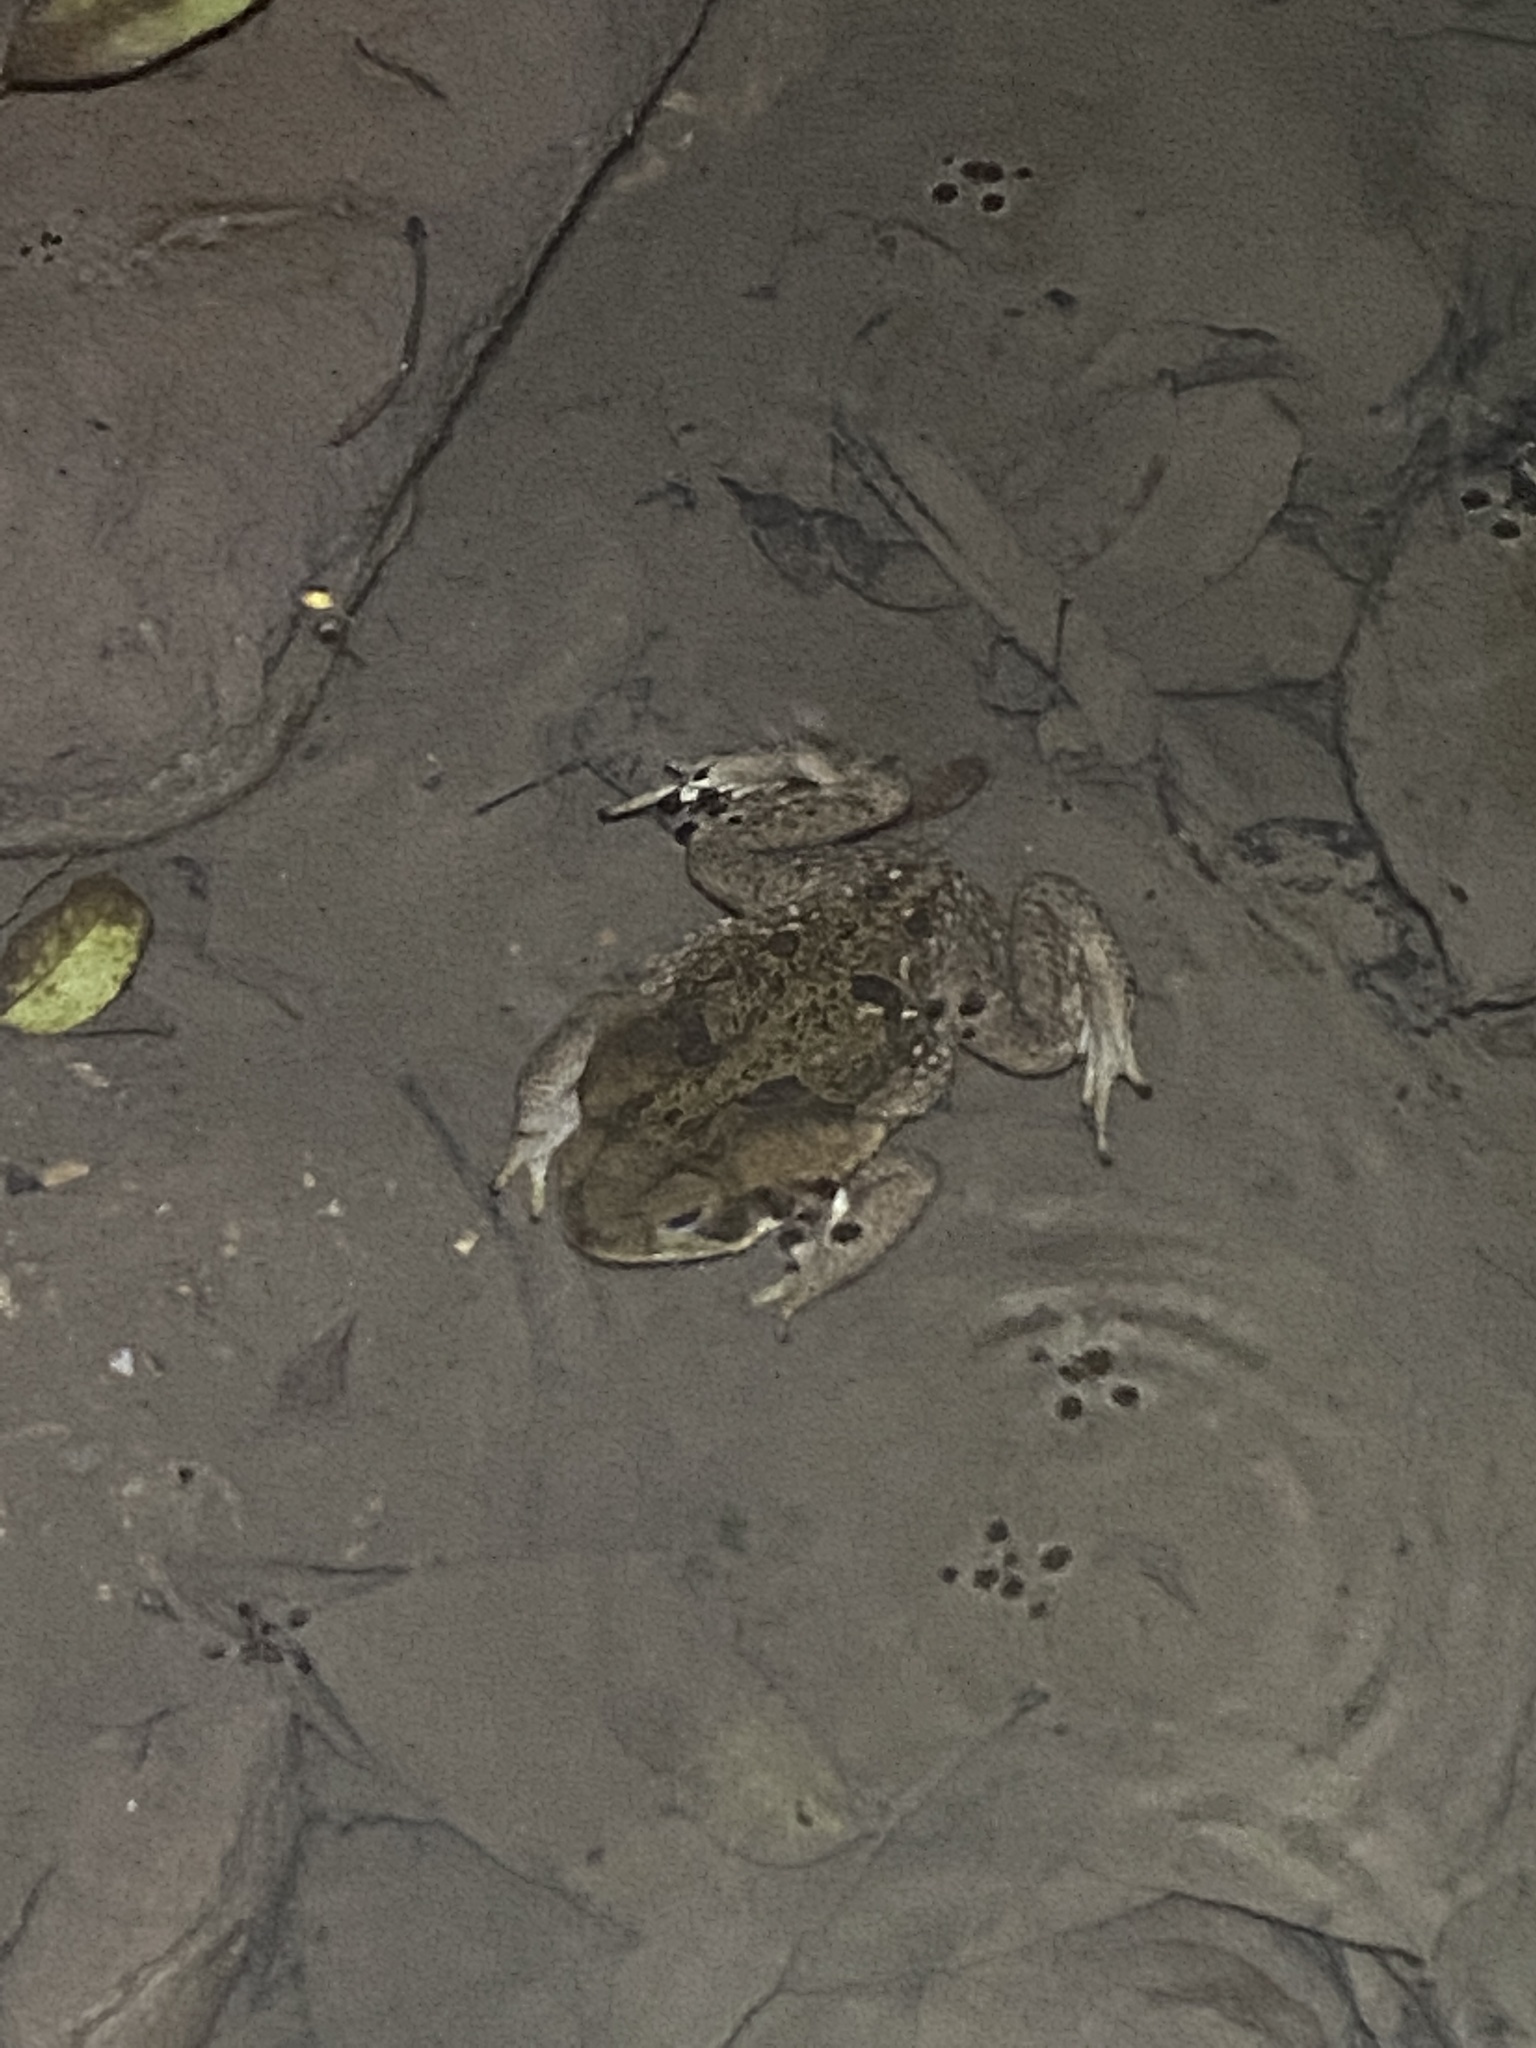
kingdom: Animalia
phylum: Chordata
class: Amphibia
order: Anura
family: Bufonidae
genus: Rhinella
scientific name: Rhinella marina
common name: Cane toad
